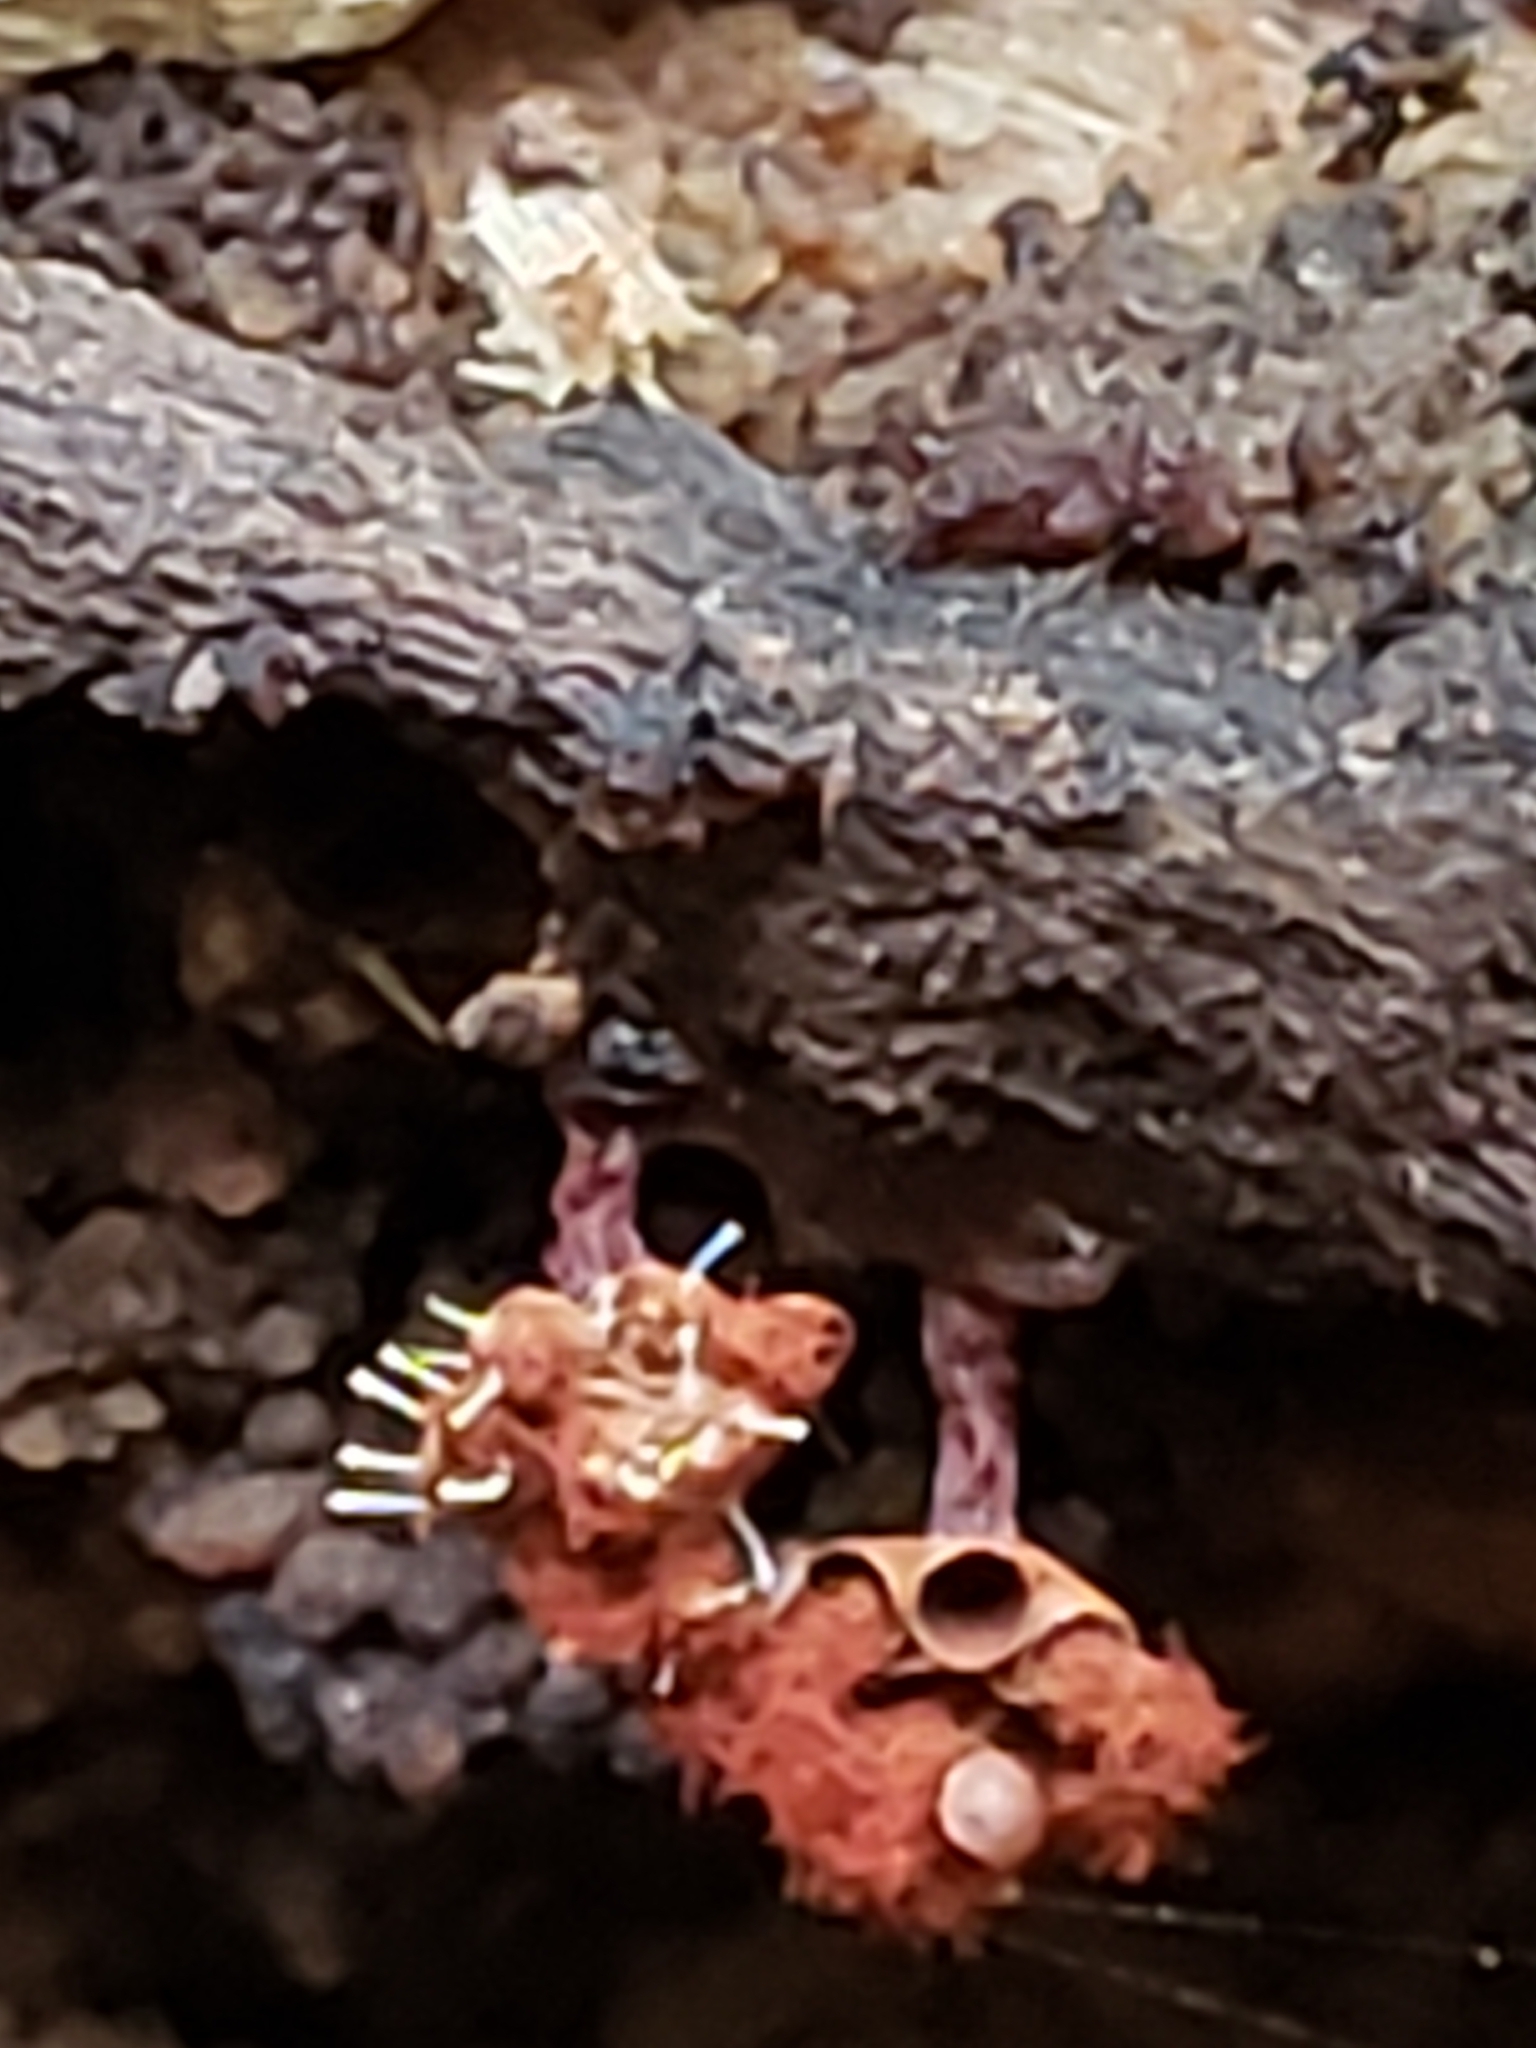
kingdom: Fungi
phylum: Ascomycota
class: Sordariomycetes
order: Hypocreales
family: Ophiocordycipitaceae
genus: Polycephalomyces
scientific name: Polycephalomyces tomentosus
